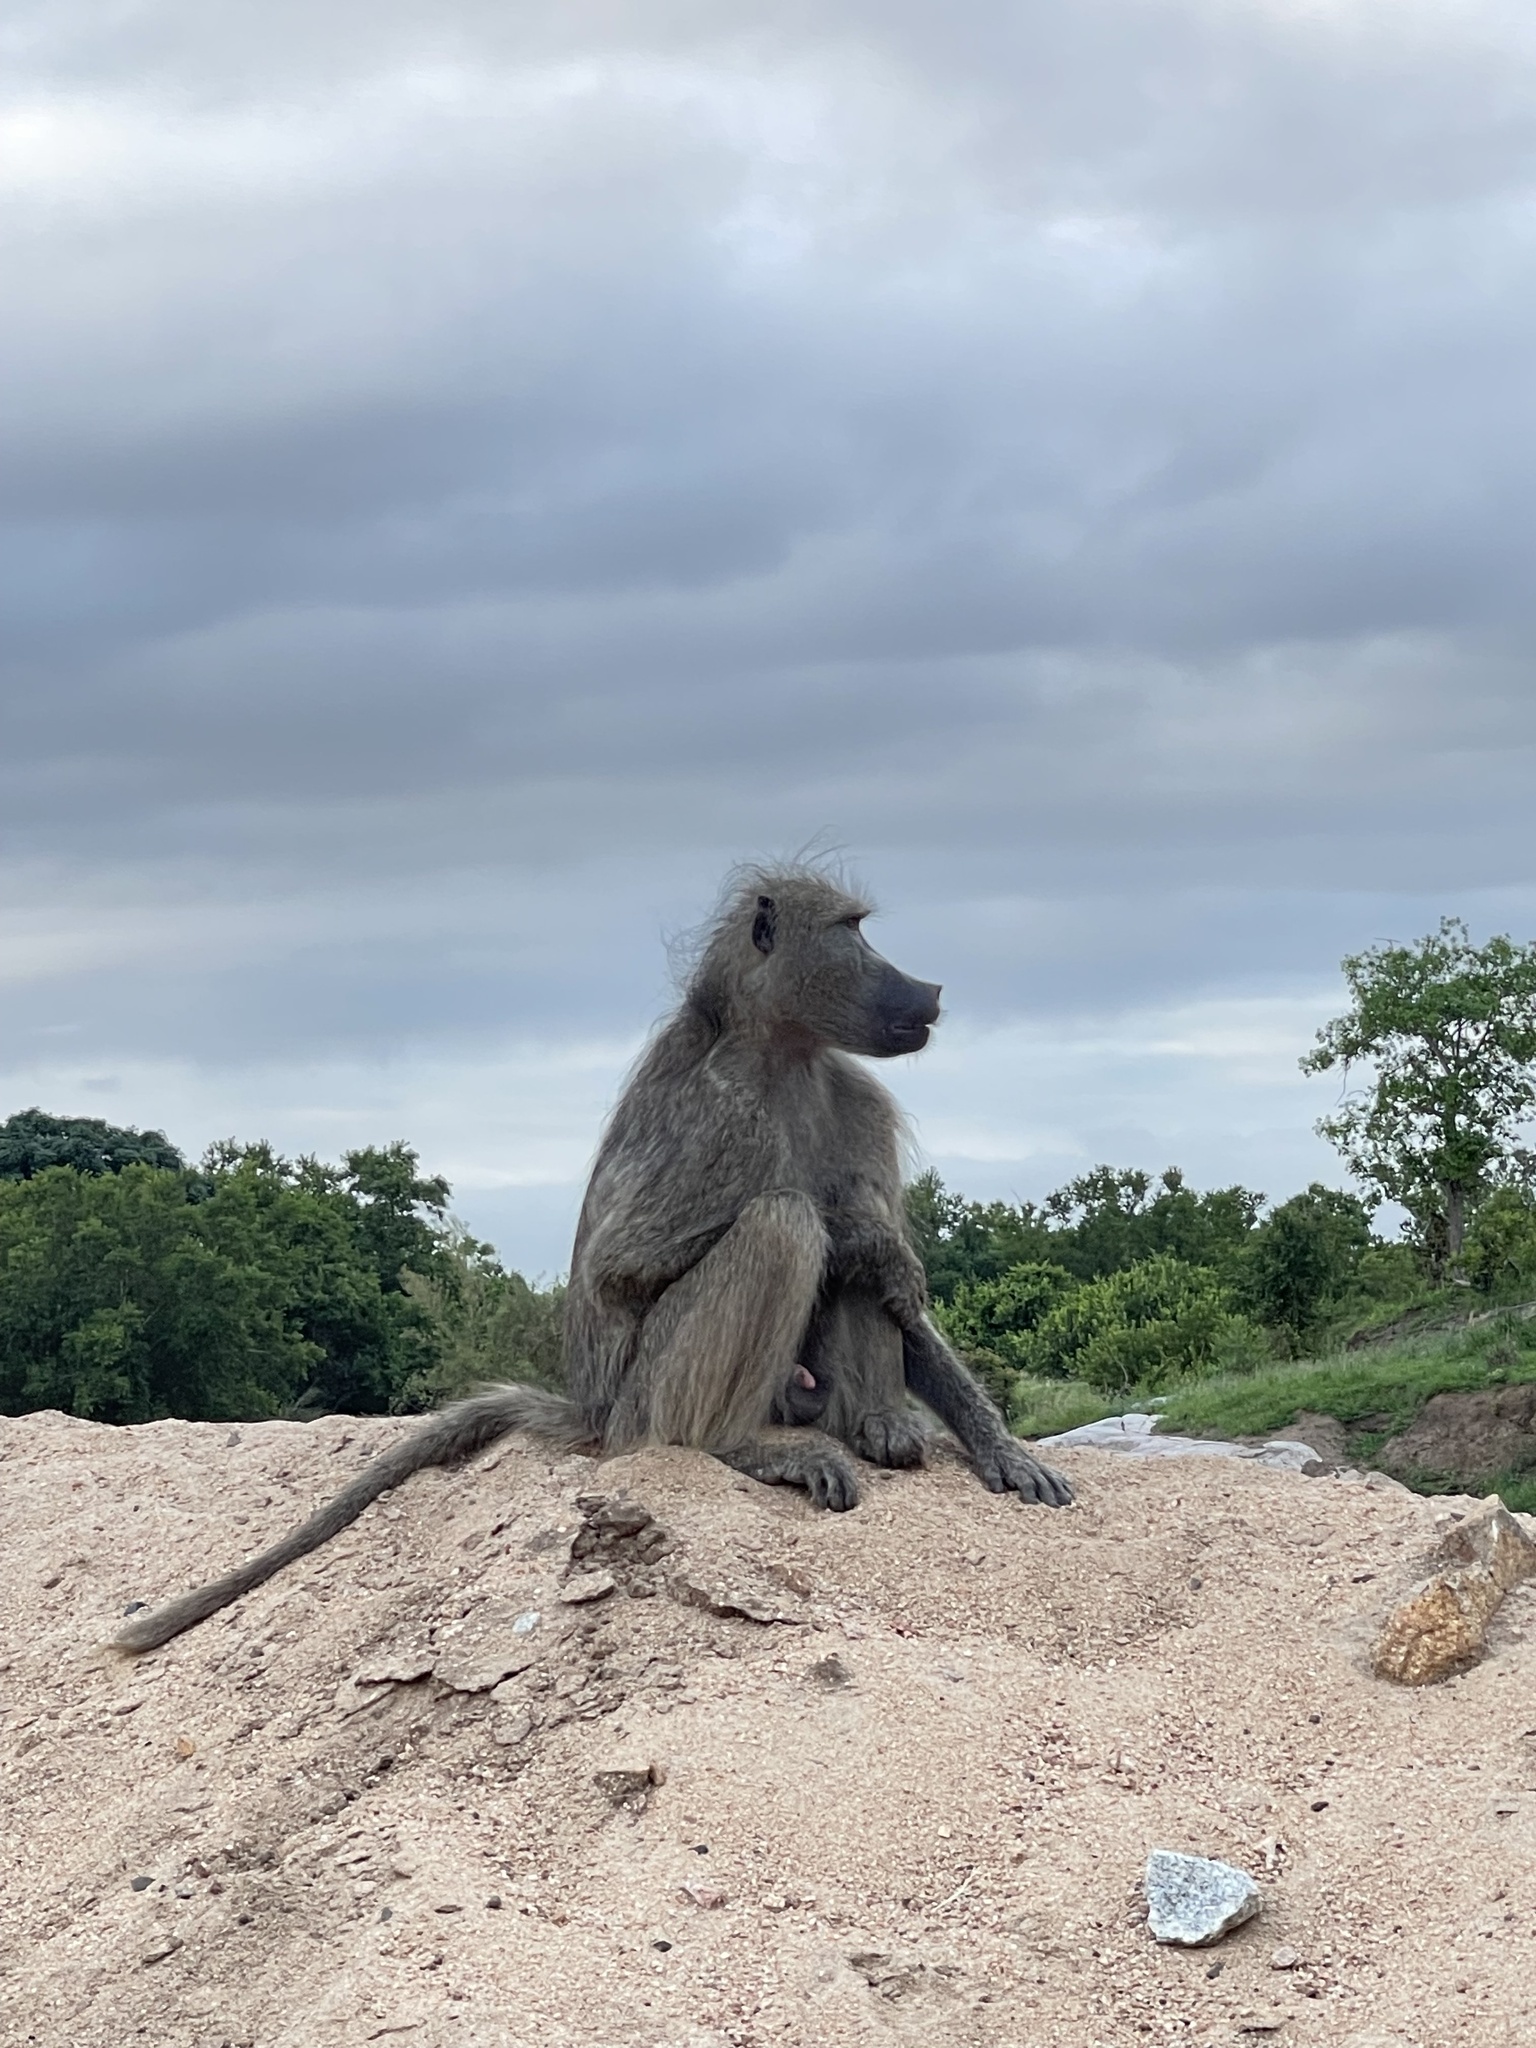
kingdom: Animalia
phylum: Chordata
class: Mammalia
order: Primates
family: Cercopithecidae
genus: Papio
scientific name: Papio ursinus
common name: Chacma baboon
